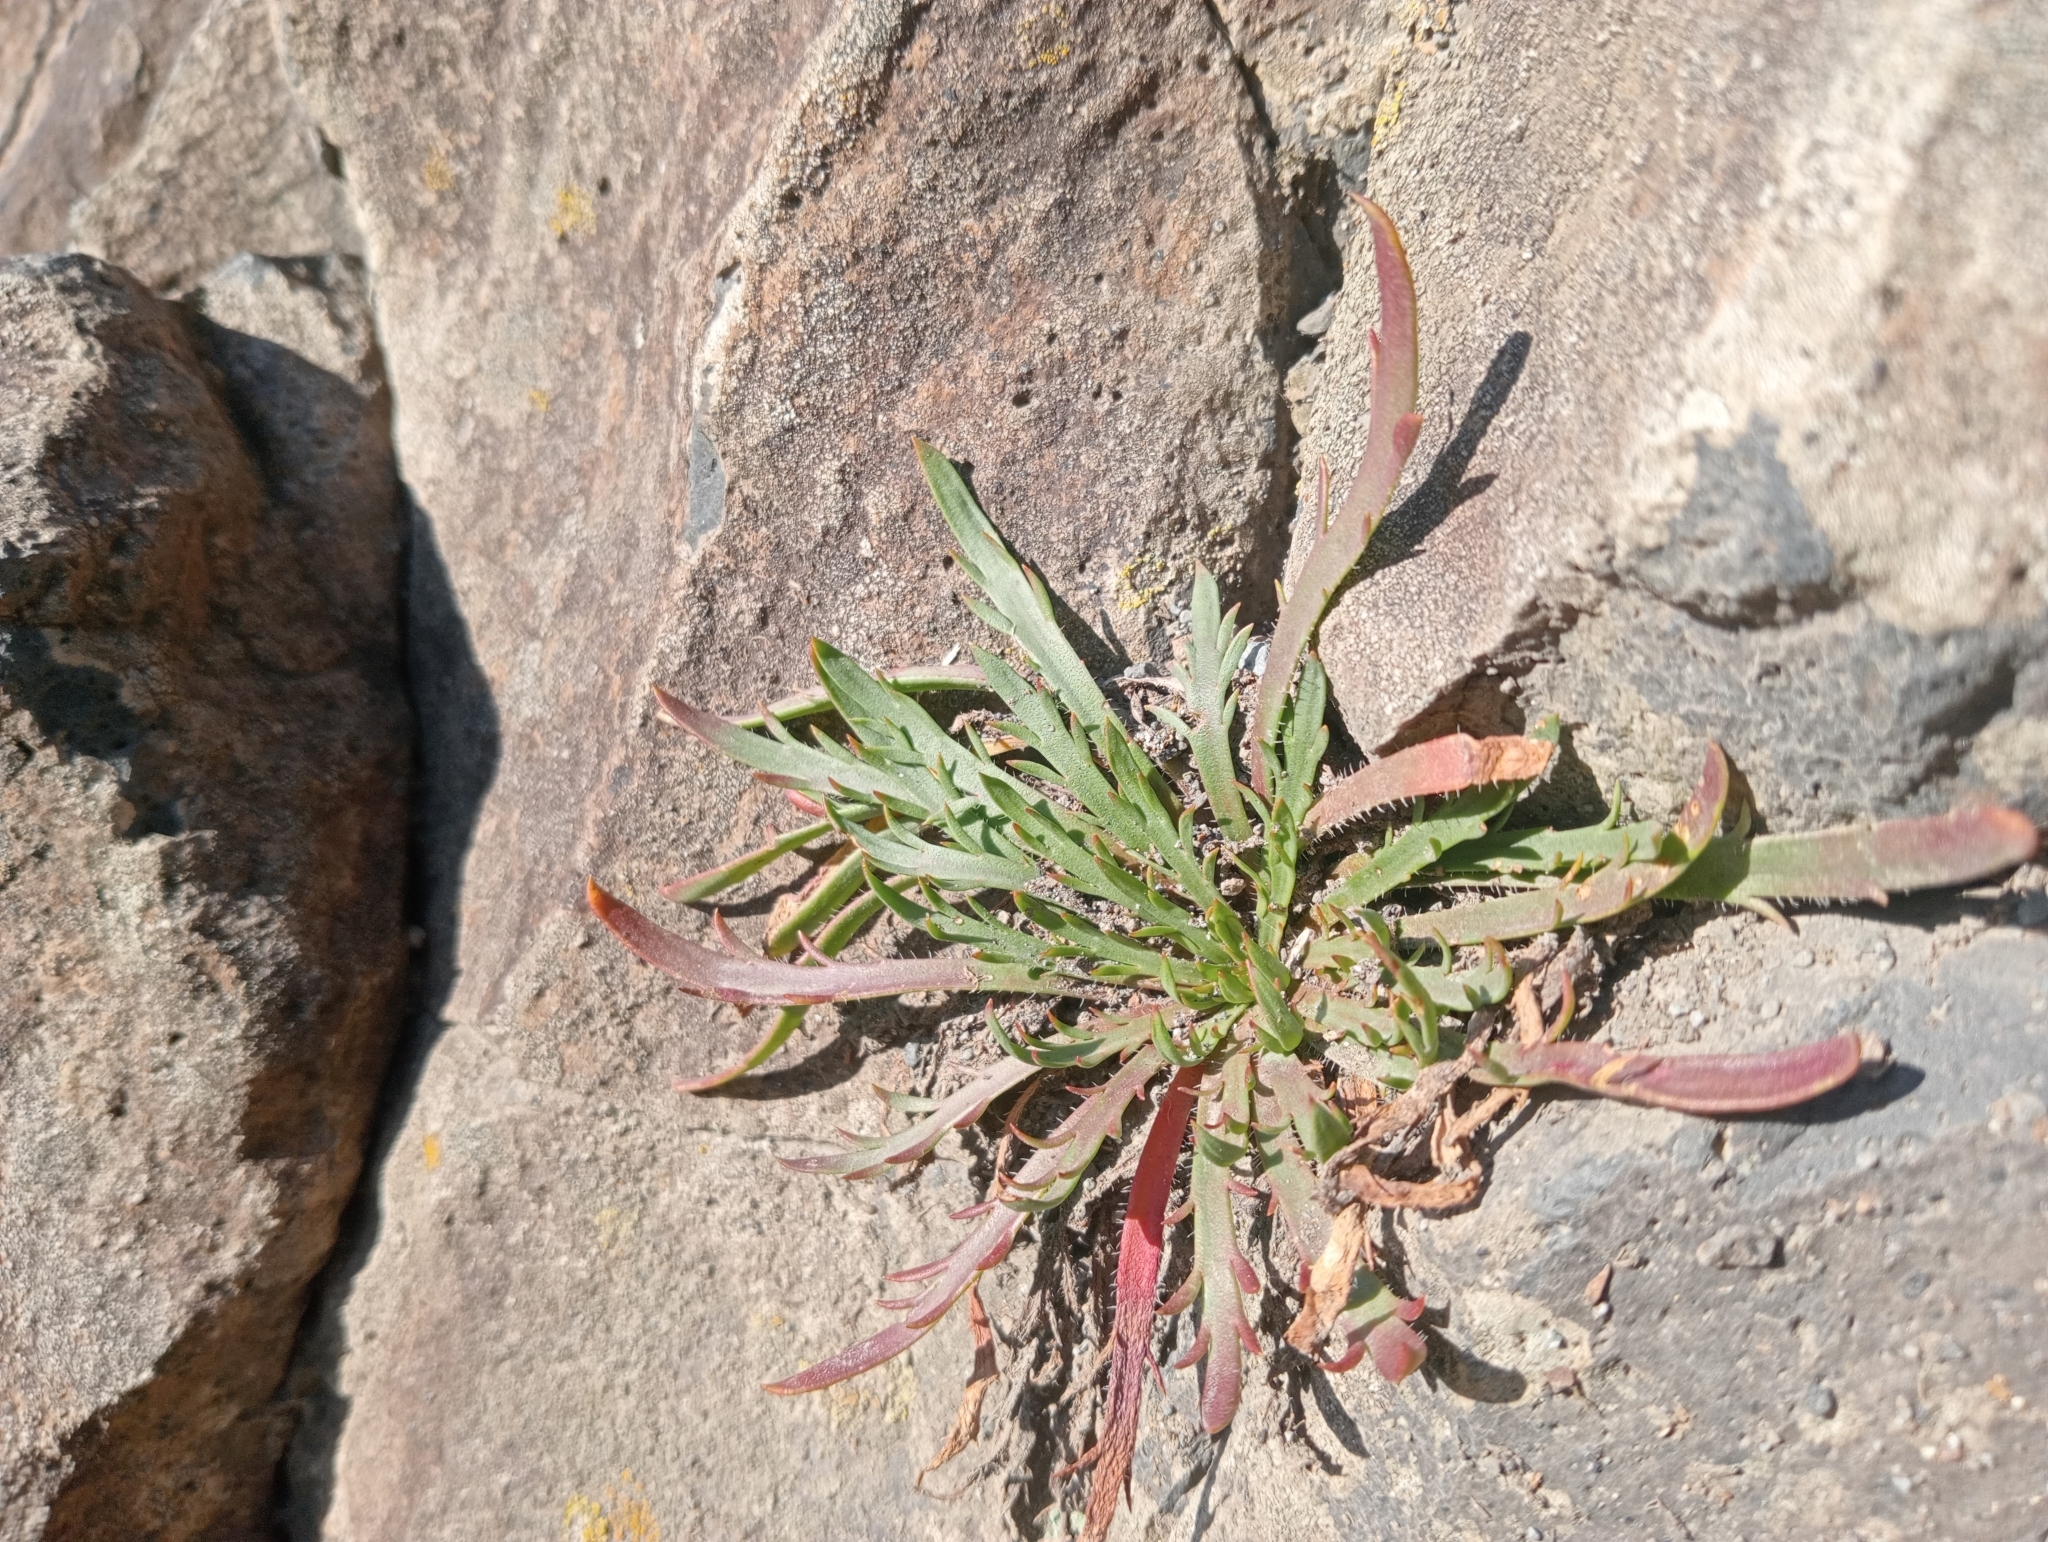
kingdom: Plantae
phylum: Tracheophyta
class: Magnoliopsida
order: Lamiales
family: Plantaginaceae
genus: Plantago
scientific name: Plantago coronopus
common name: Buck's-horn plantain
